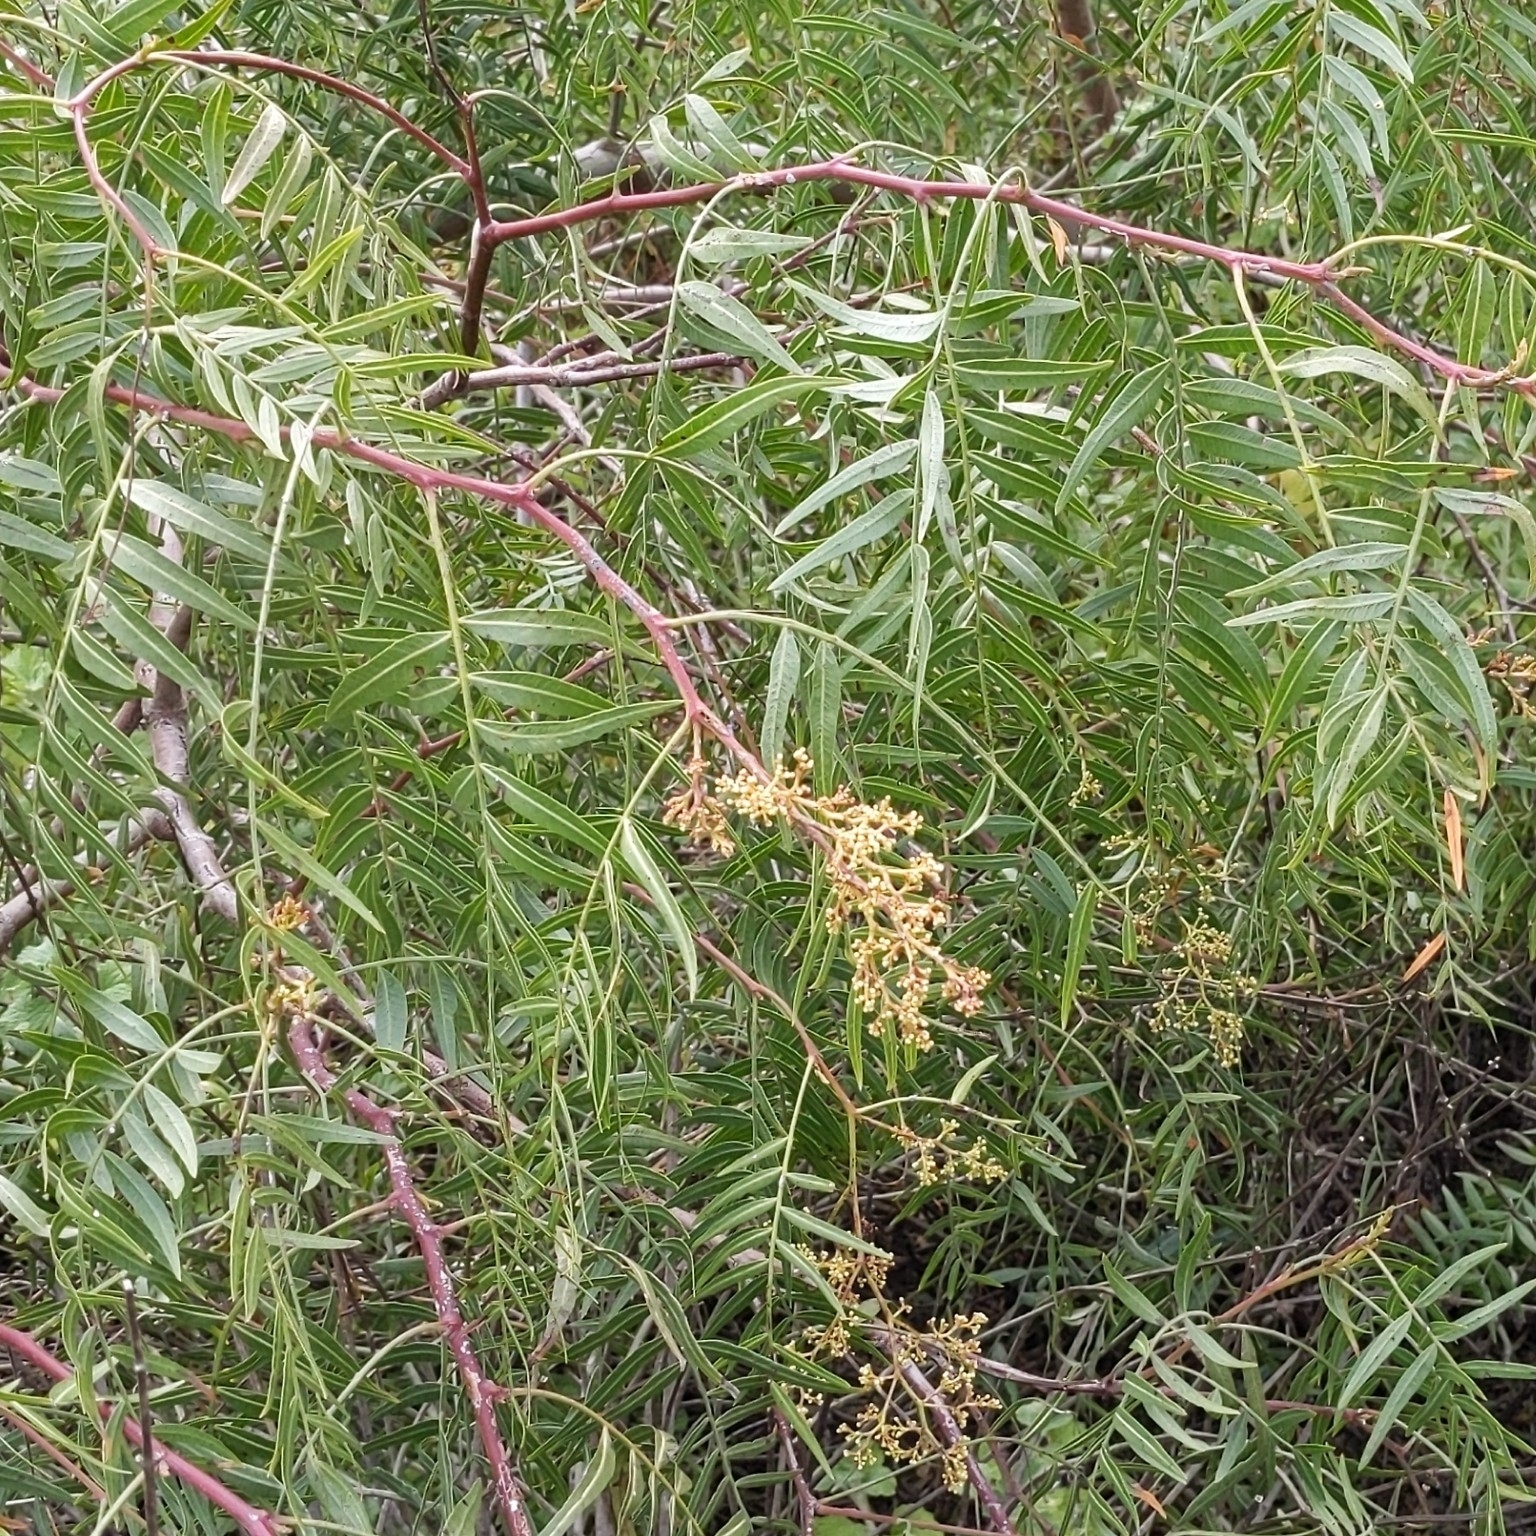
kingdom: Plantae
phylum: Tracheophyta
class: Magnoliopsida
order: Sapindales
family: Anacardiaceae
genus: Schinus
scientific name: Schinus molle
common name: Peruvian peppertree
